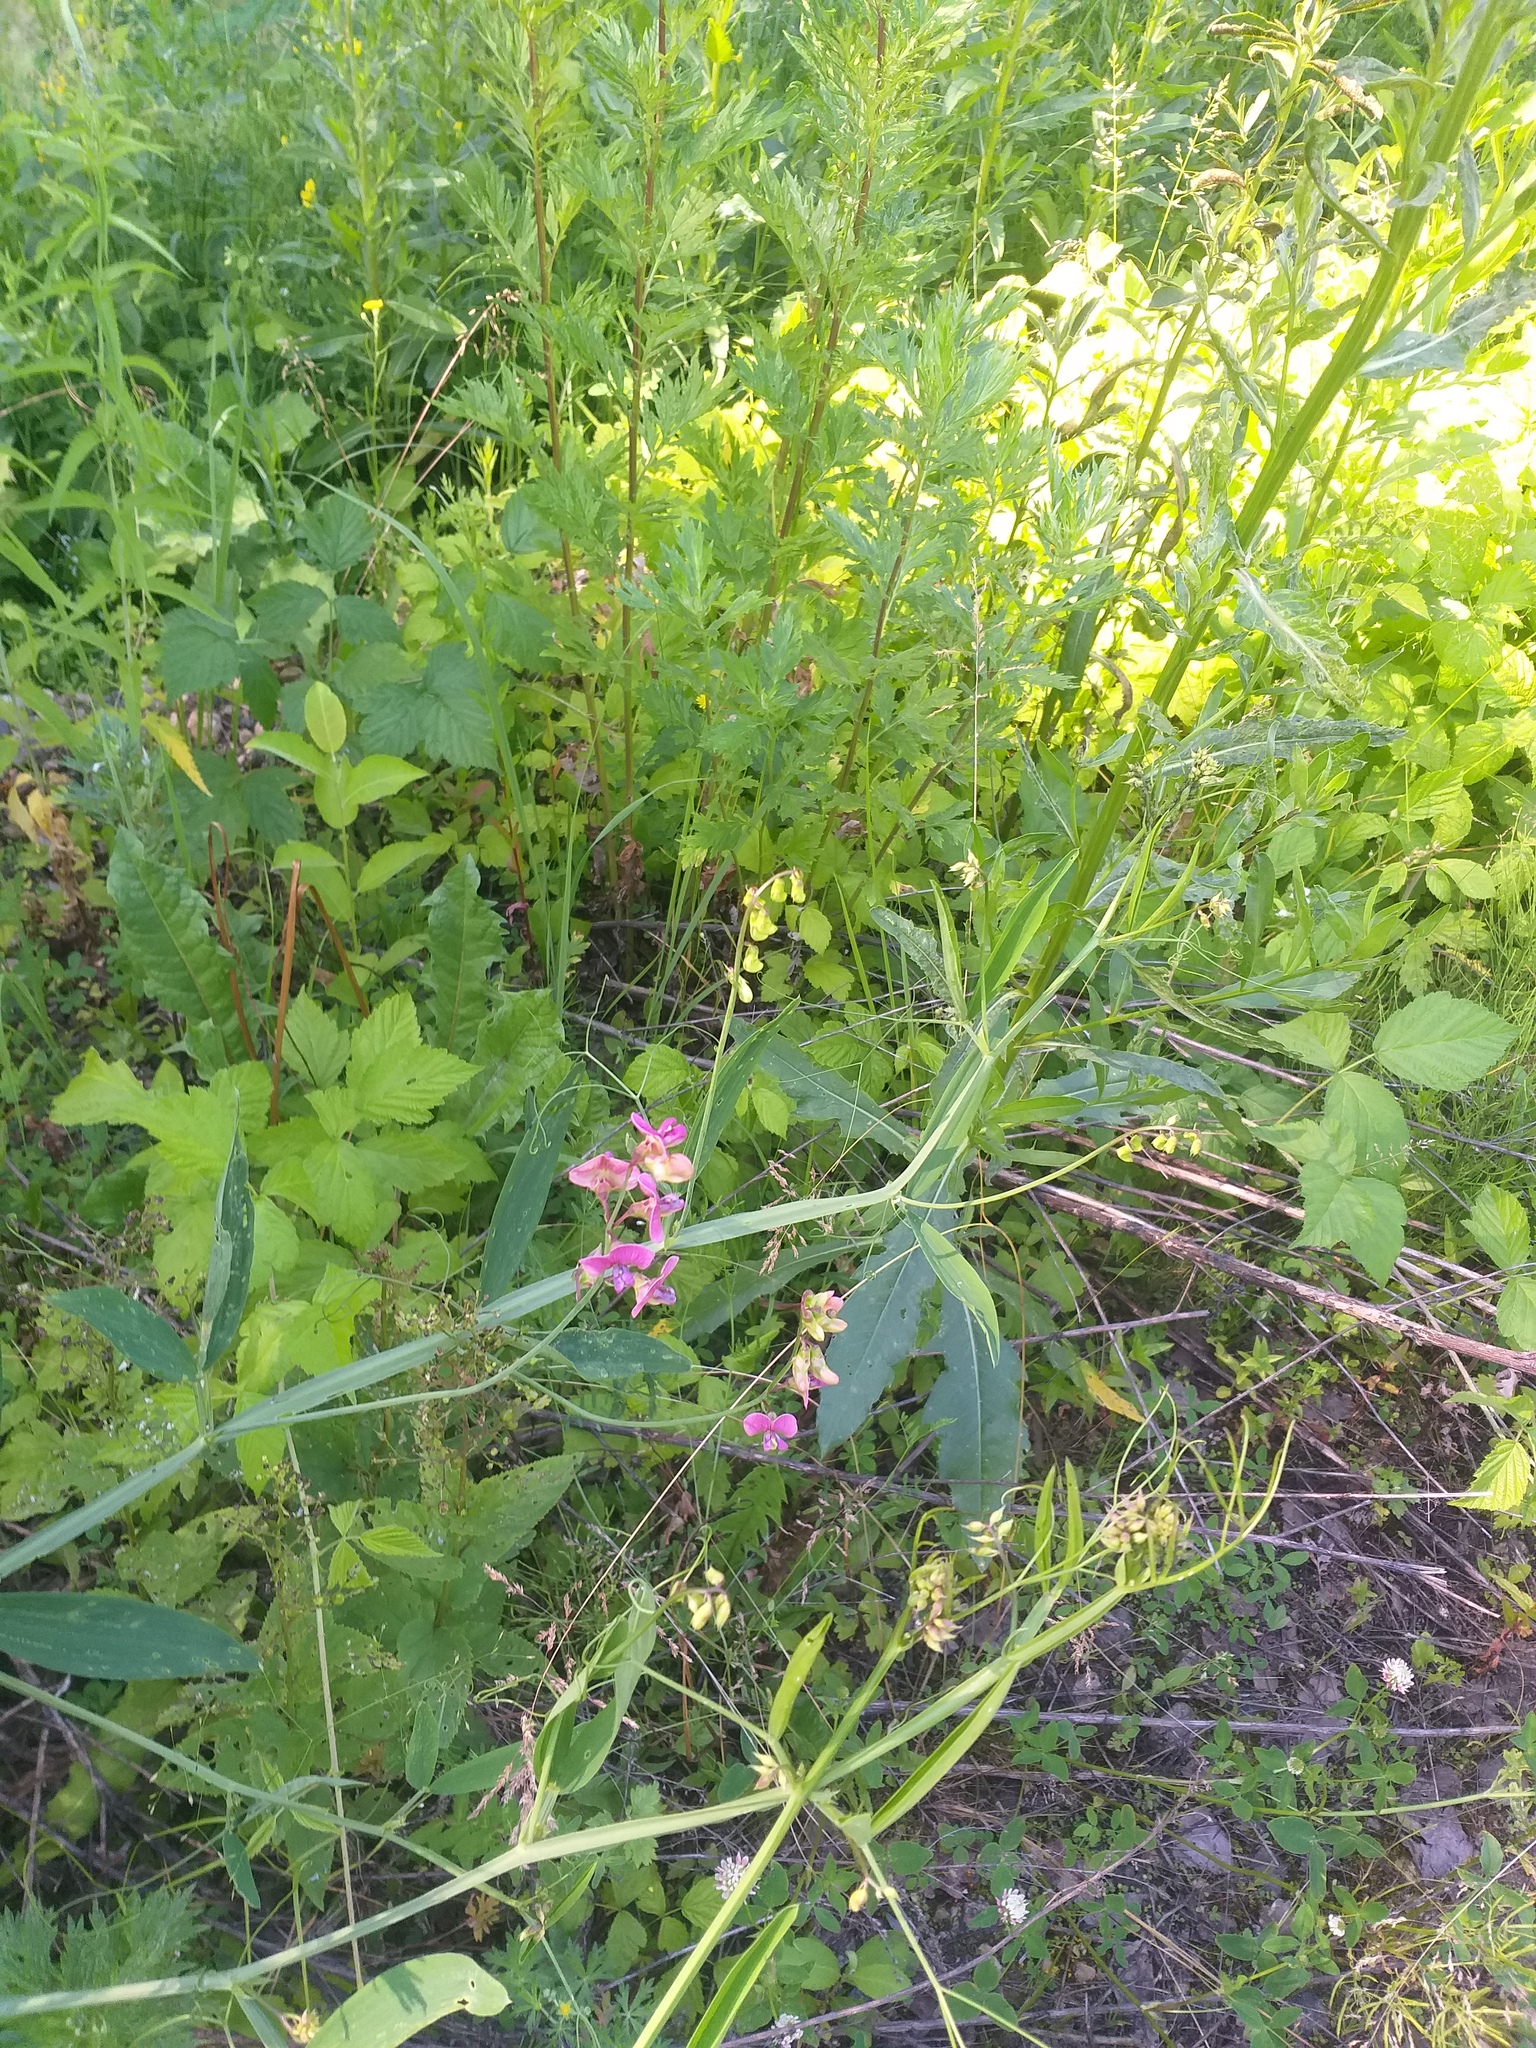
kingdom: Plantae
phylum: Tracheophyta
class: Magnoliopsida
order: Fabales
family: Fabaceae
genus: Lathyrus
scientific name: Lathyrus sylvestris
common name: Flat pea
